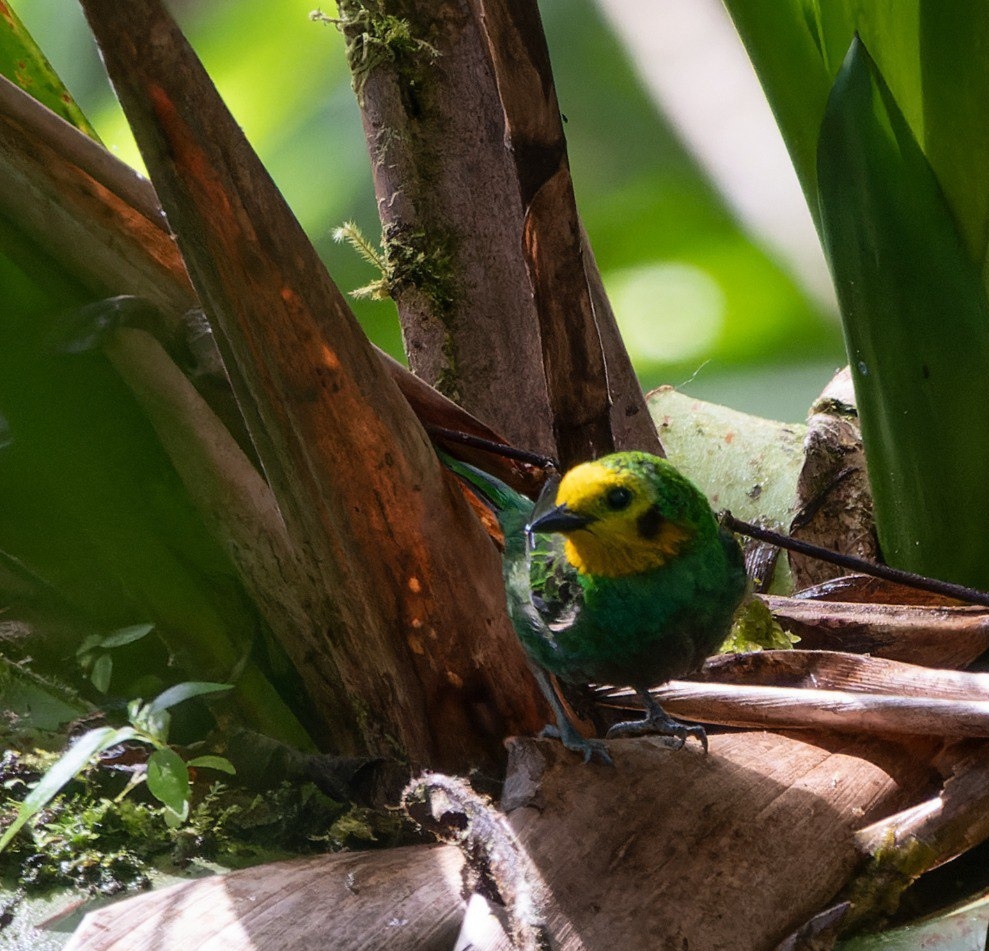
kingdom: Animalia
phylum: Chordata
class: Aves
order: Passeriformes
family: Thraupidae
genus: Chlorochrysa
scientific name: Chlorochrysa nitidissima
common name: Multicolored tanager
